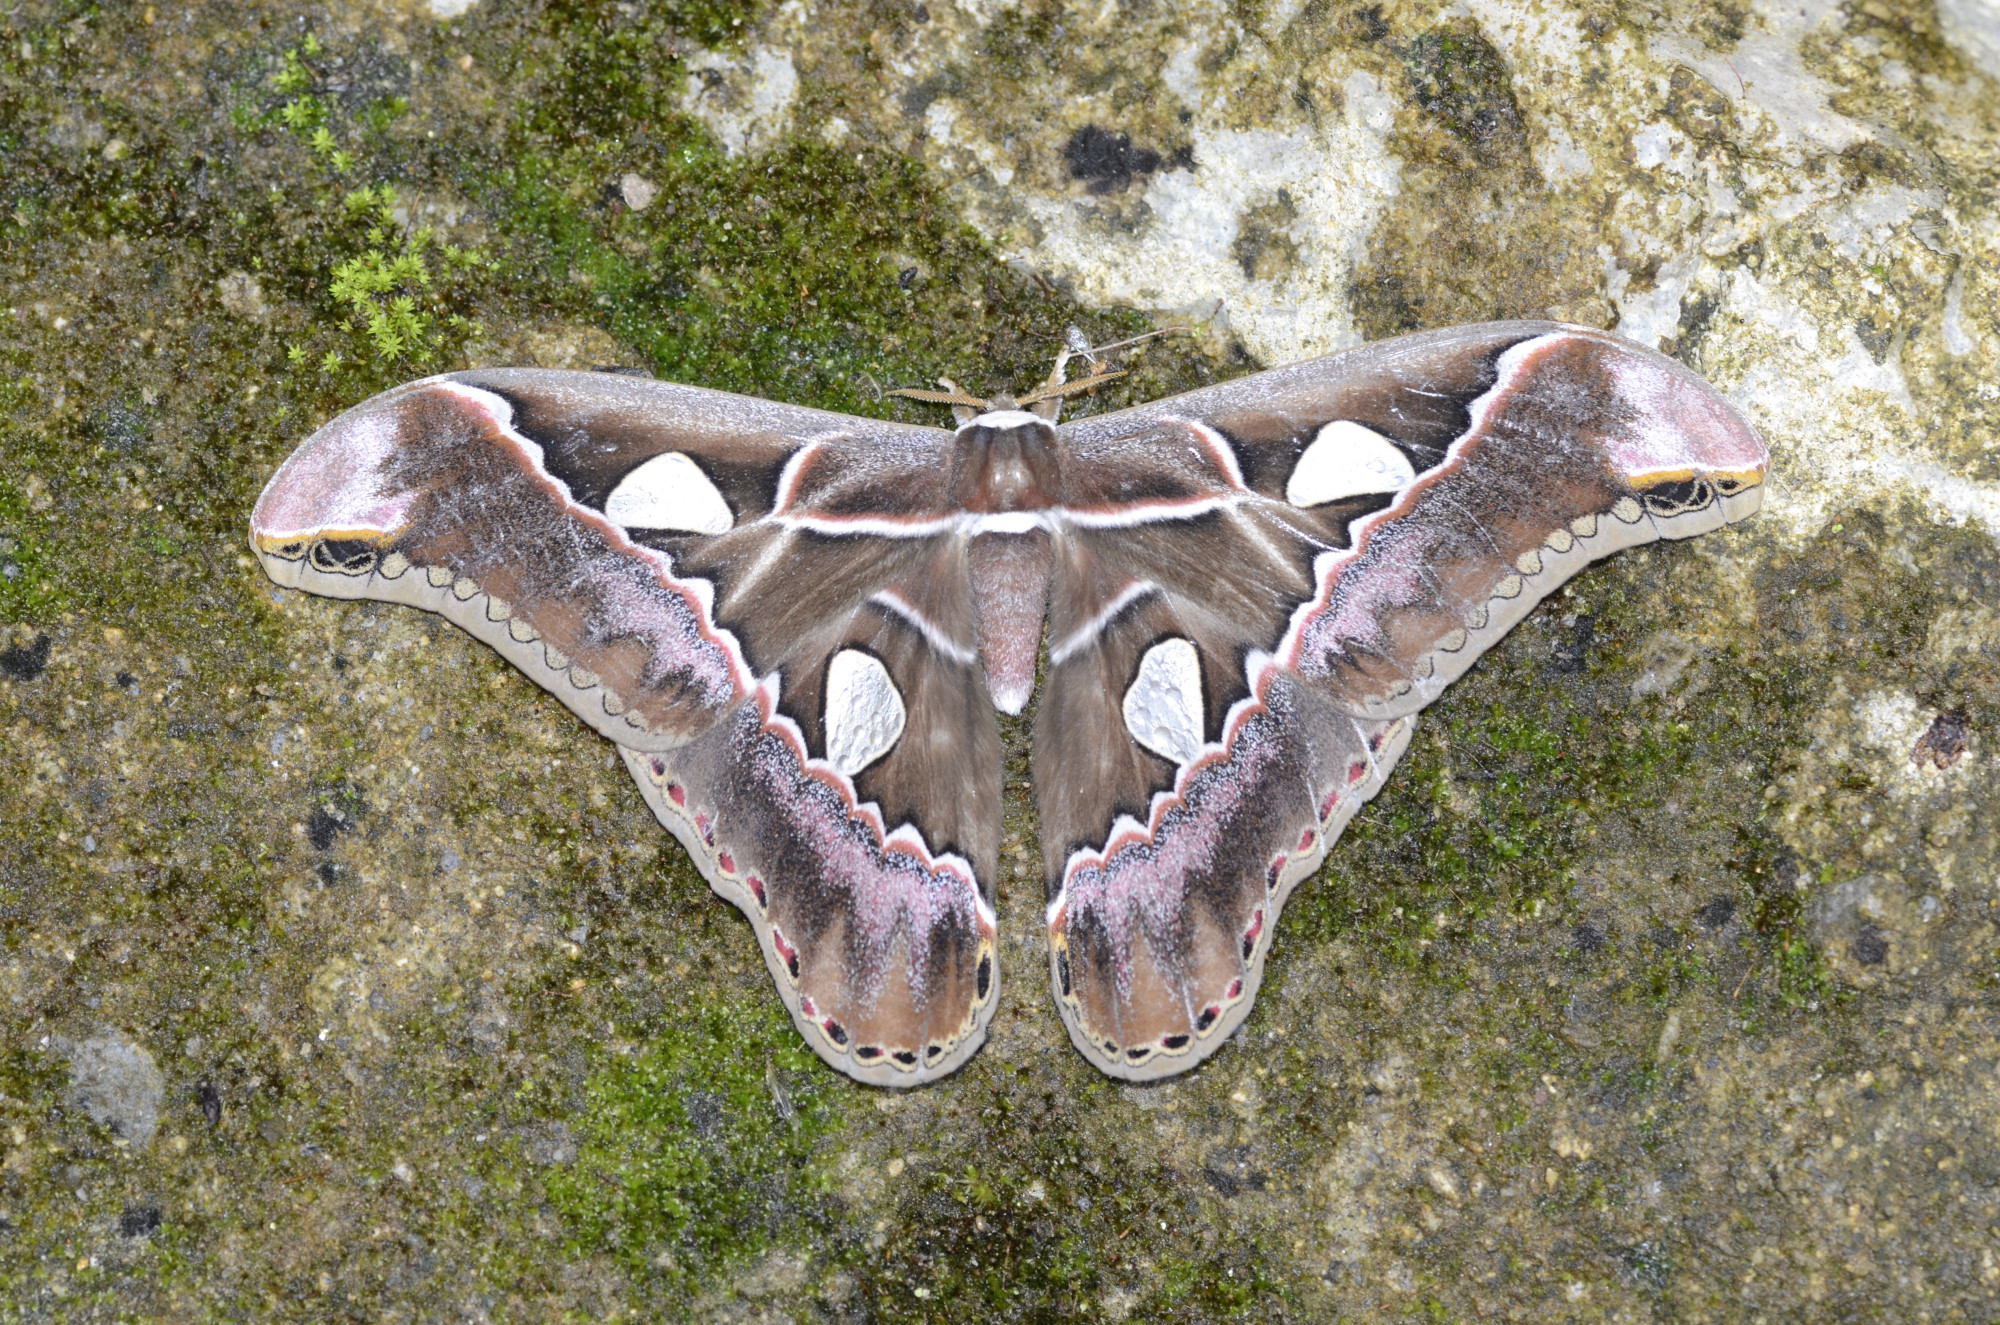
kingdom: Animalia
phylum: Arthropoda
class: Insecta
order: Lepidoptera
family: Saturniidae
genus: Rothschildia
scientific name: Rothschildia lebecuatoriana
